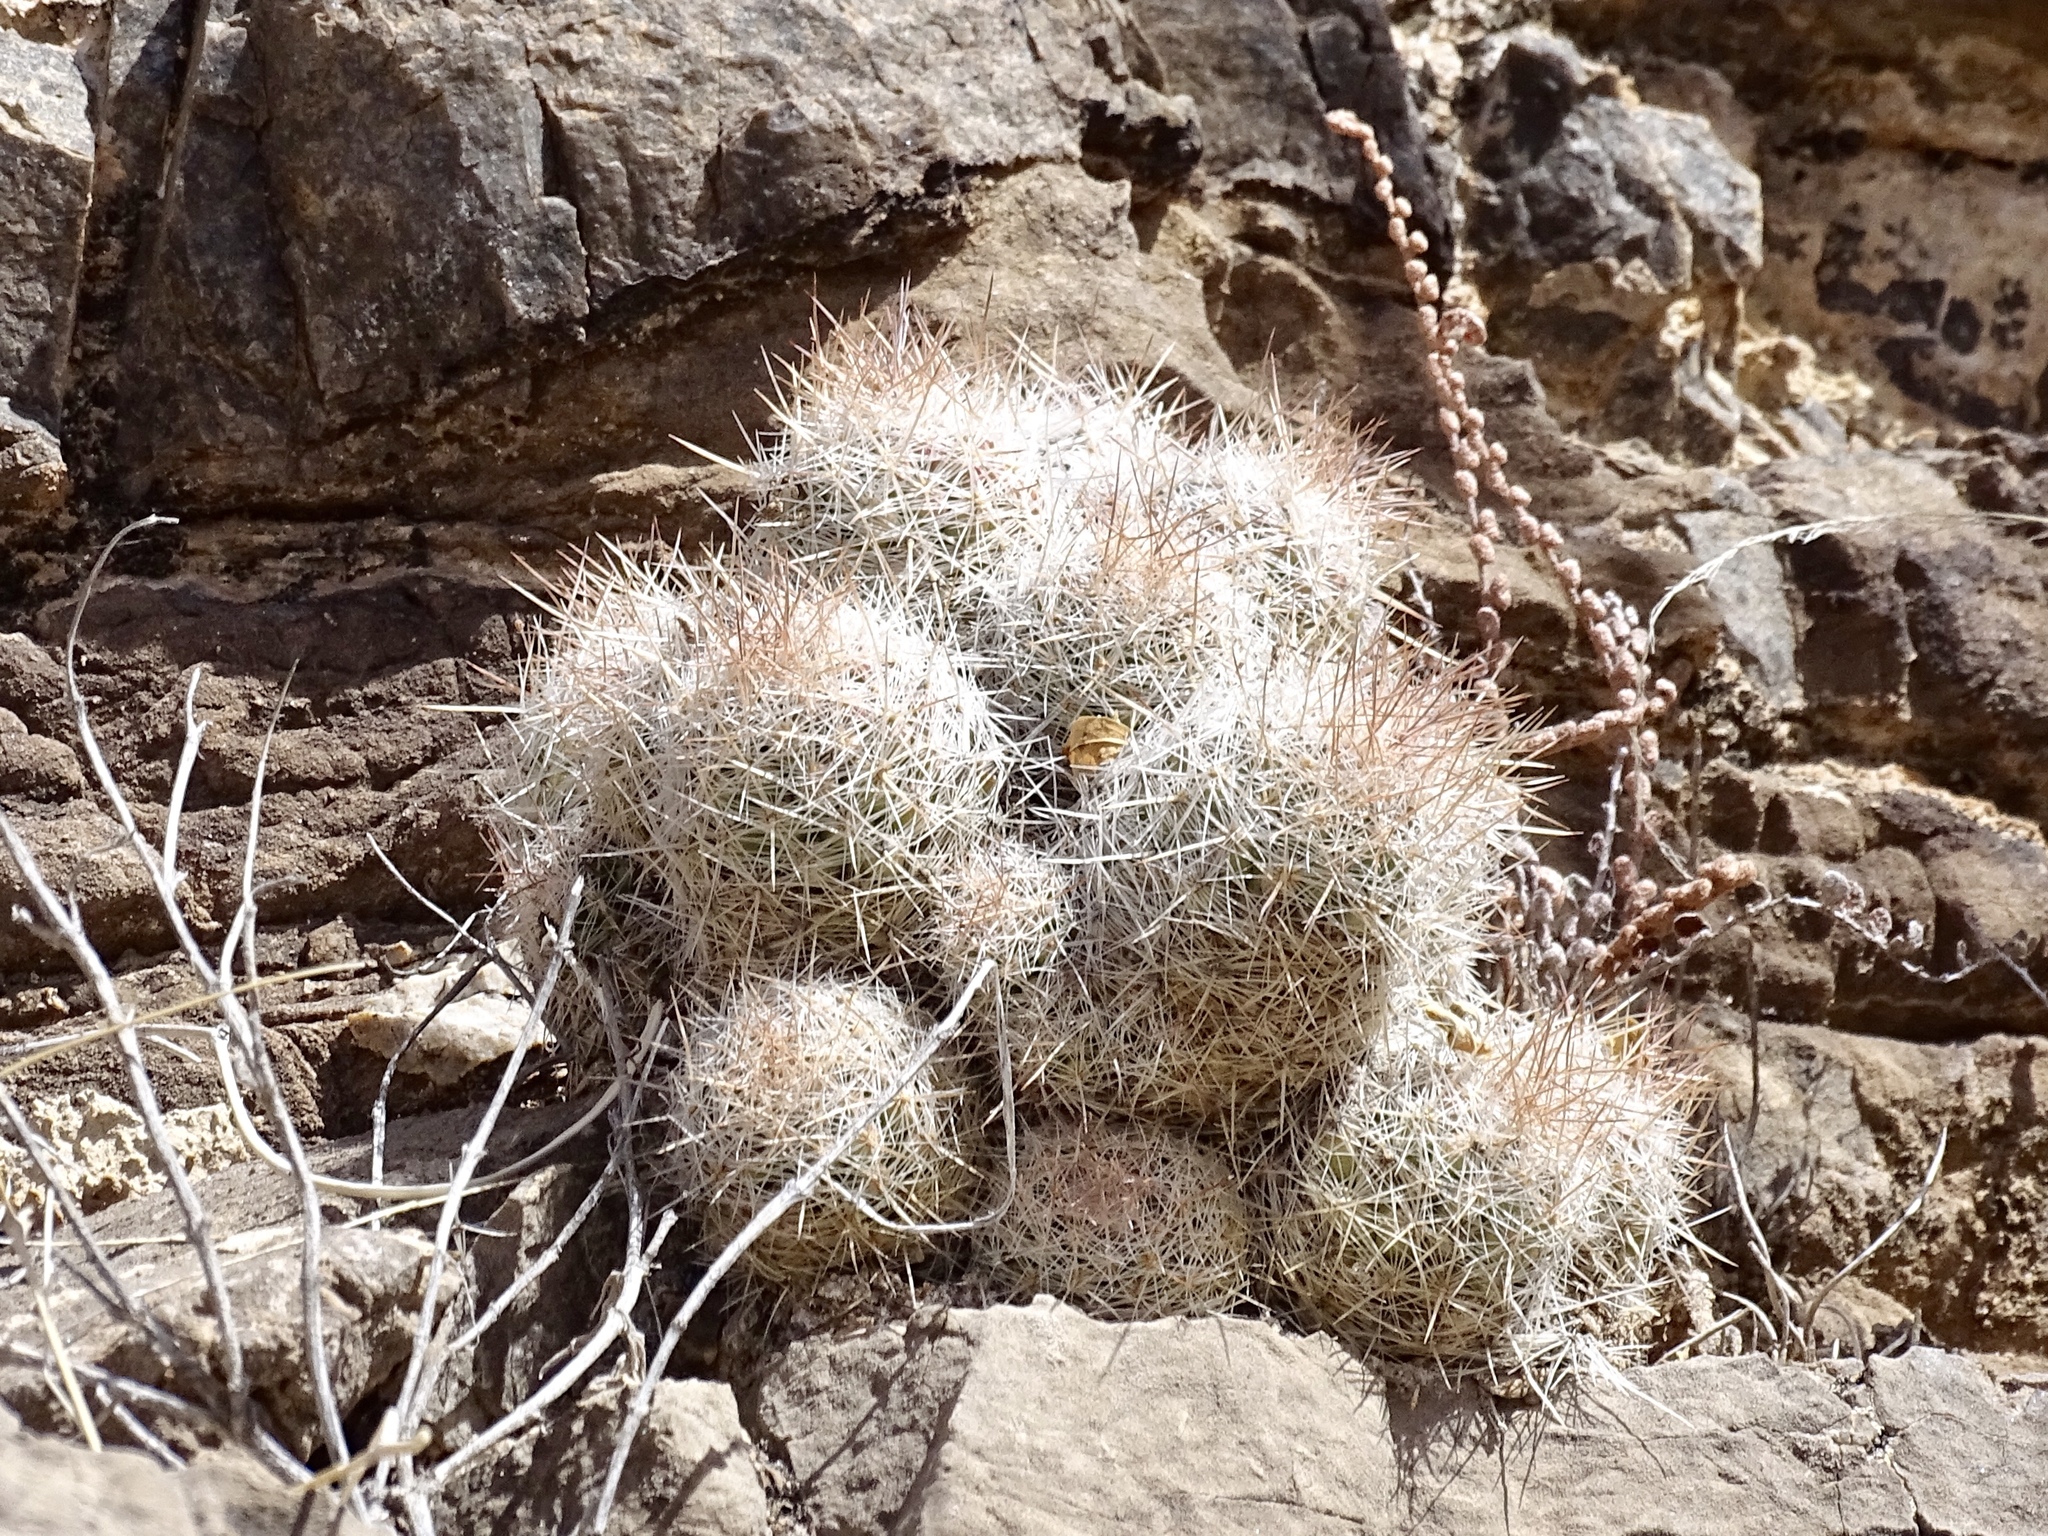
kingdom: Plantae
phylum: Tracheophyta
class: Magnoliopsida
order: Caryophyllales
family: Cactaceae
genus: Pelecyphora
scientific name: Pelecyphora tuberculosa
